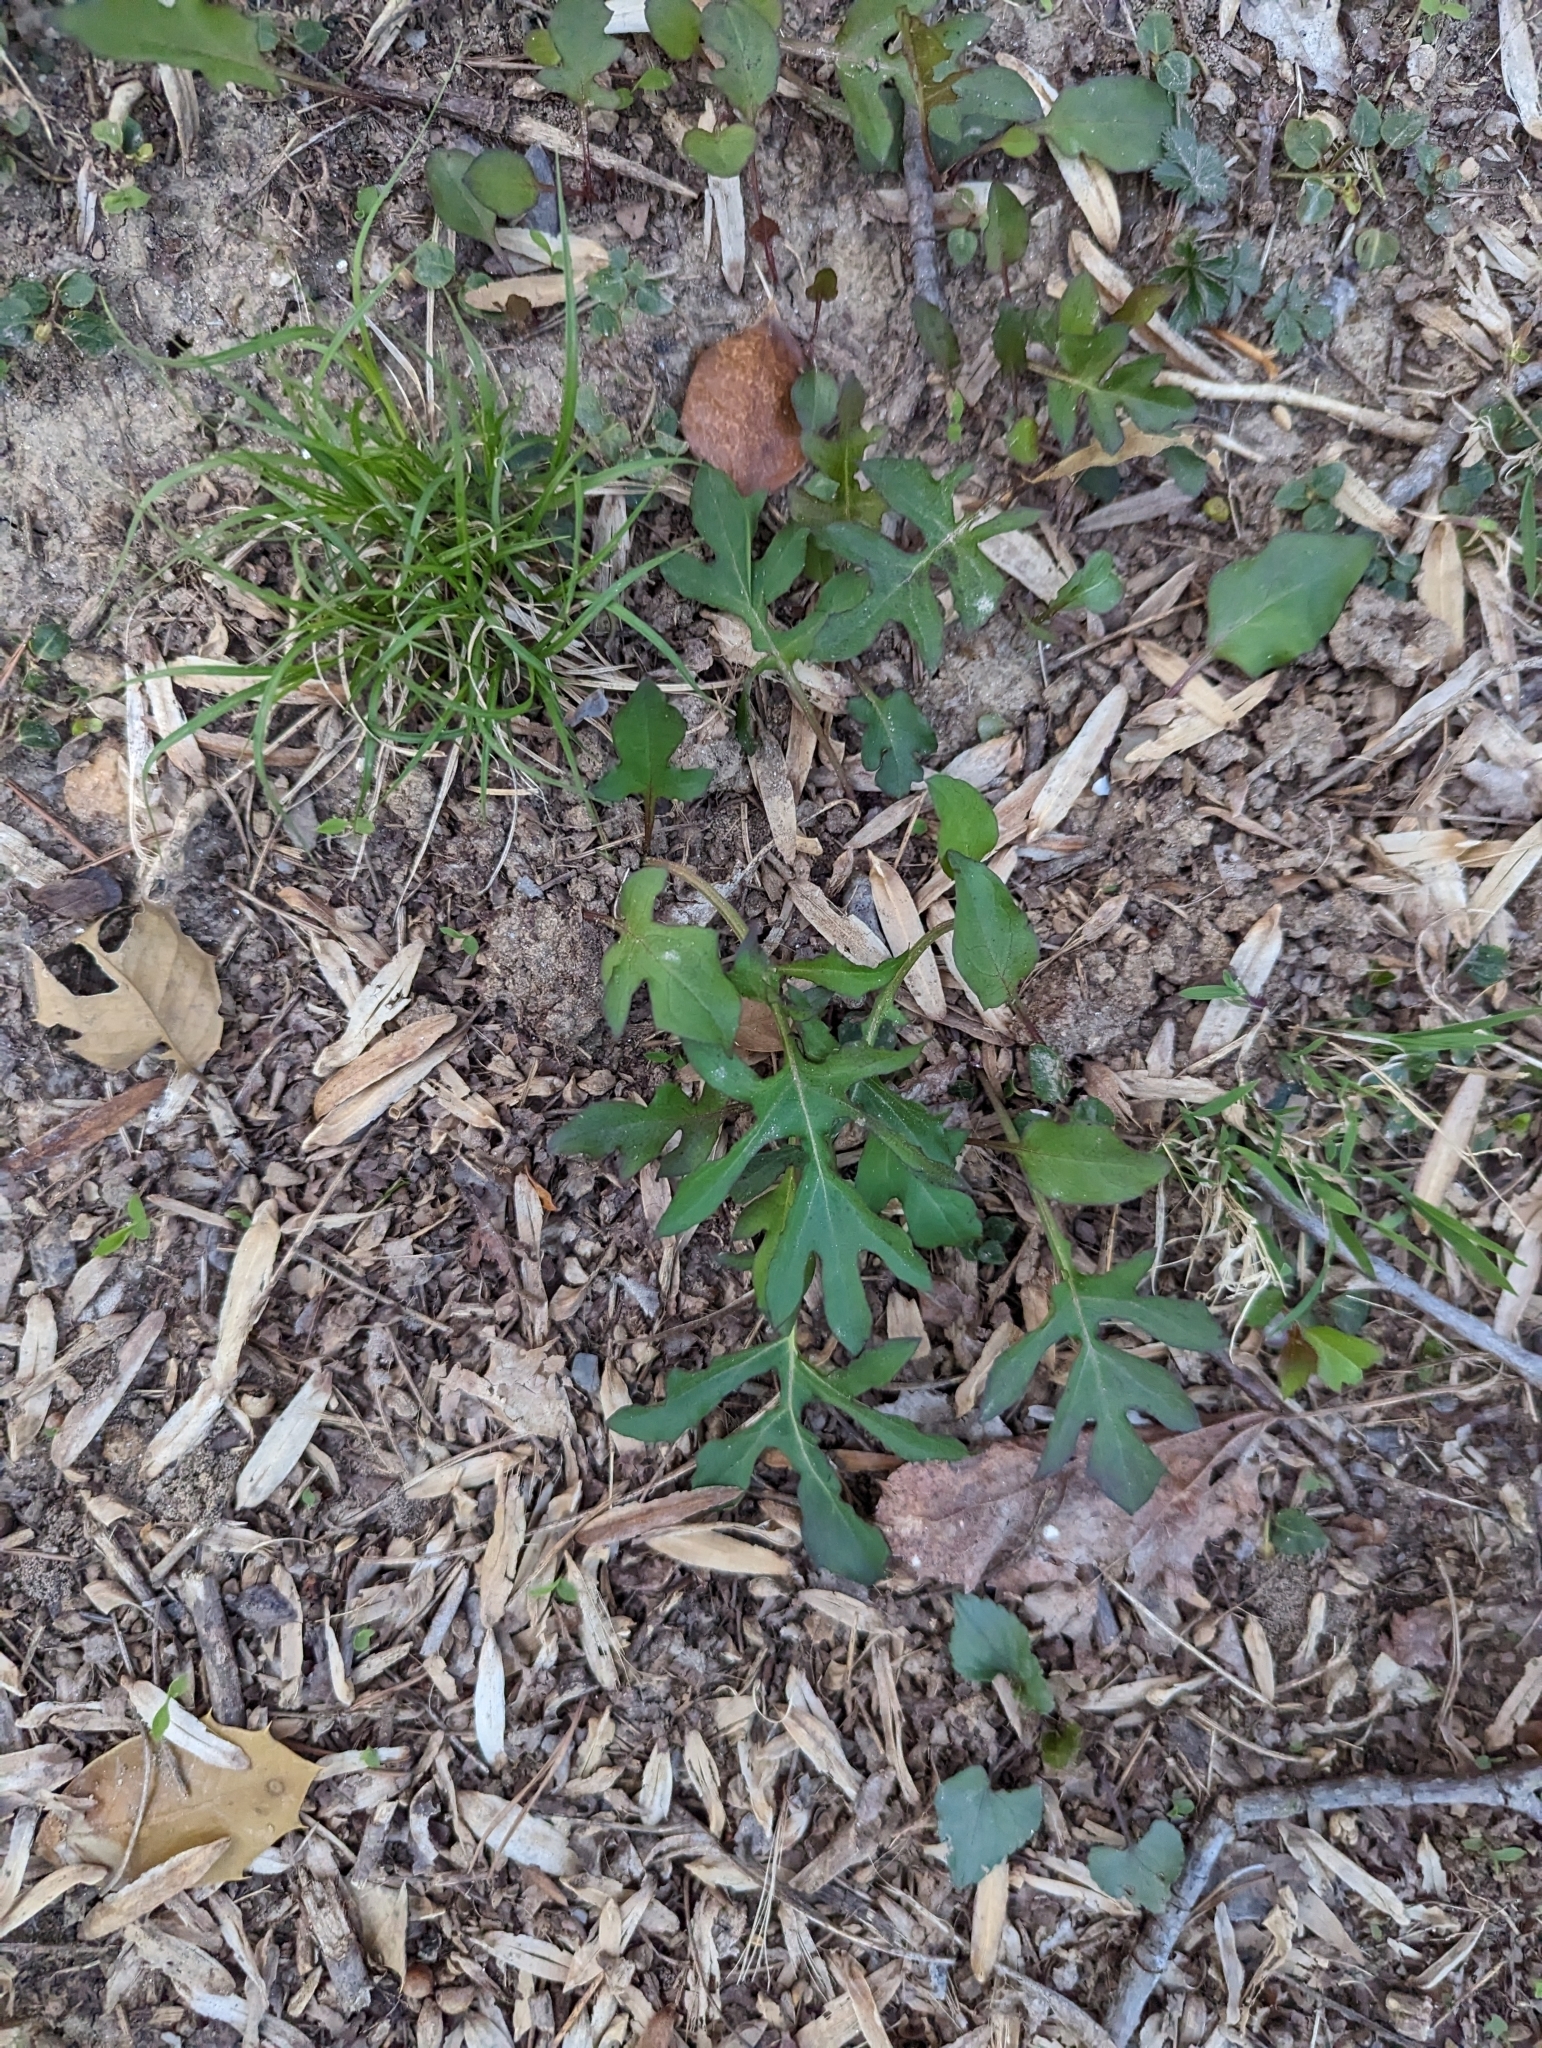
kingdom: Plantae
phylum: Tracheophyta
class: Magnoliopsida
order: Asterales
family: Asteraceae
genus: Nabalus
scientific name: Nabalus serpentarius
